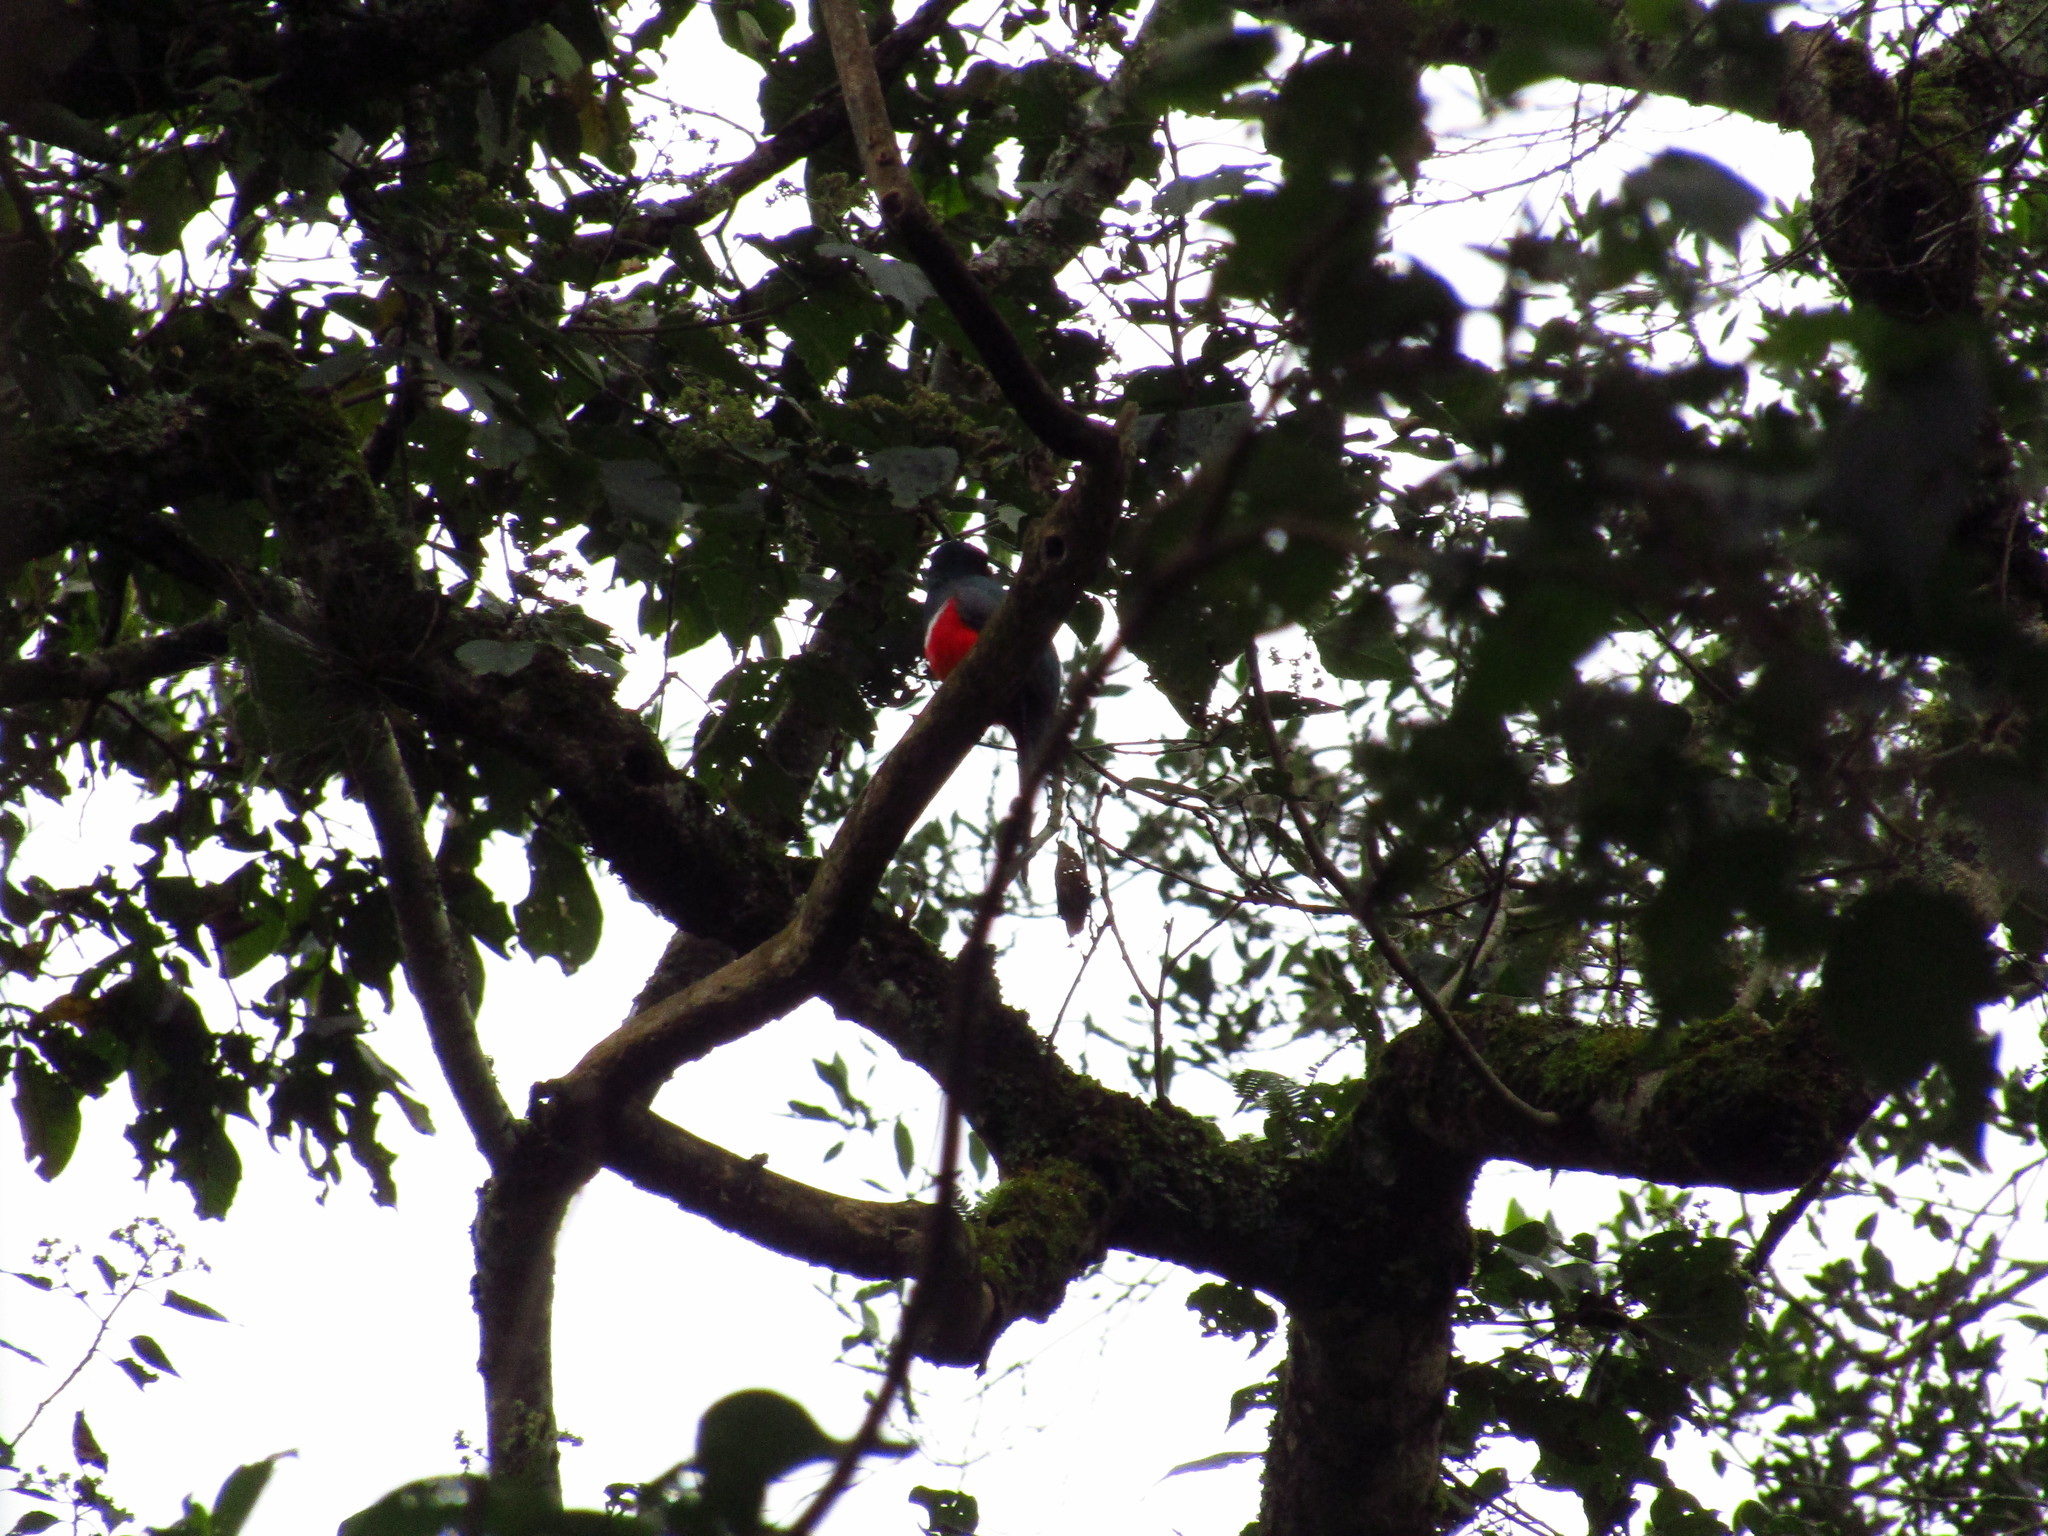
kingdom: Animalia
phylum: Chordata
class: Aves
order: Trogoniformes
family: Trogonidae
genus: Trogon
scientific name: Trogon collaris
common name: Collared trogon
